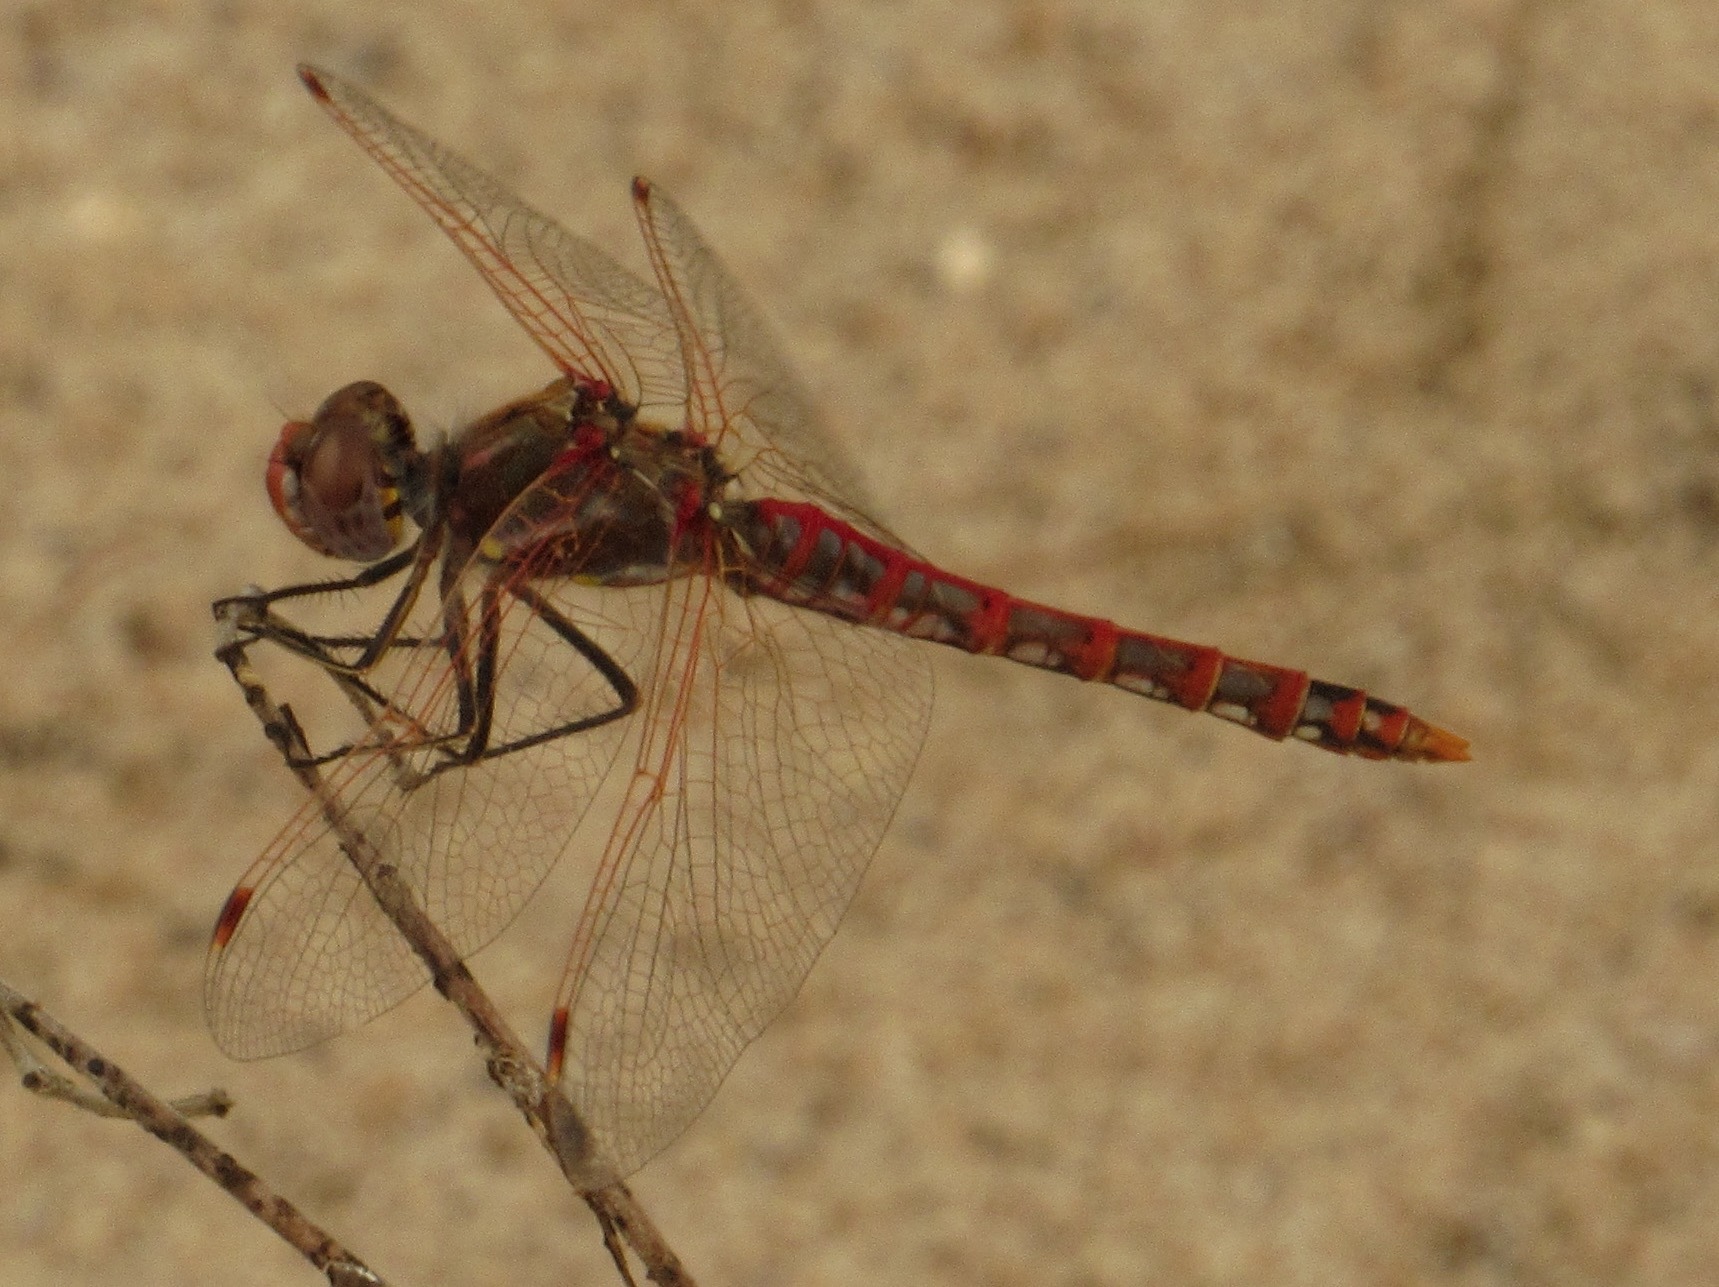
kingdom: Animalia
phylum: Arthropoda
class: Insecta
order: Odonata
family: Libellulidae
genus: Sympetrum
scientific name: Sympetrum corruptum
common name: Variegated meadowhawk
